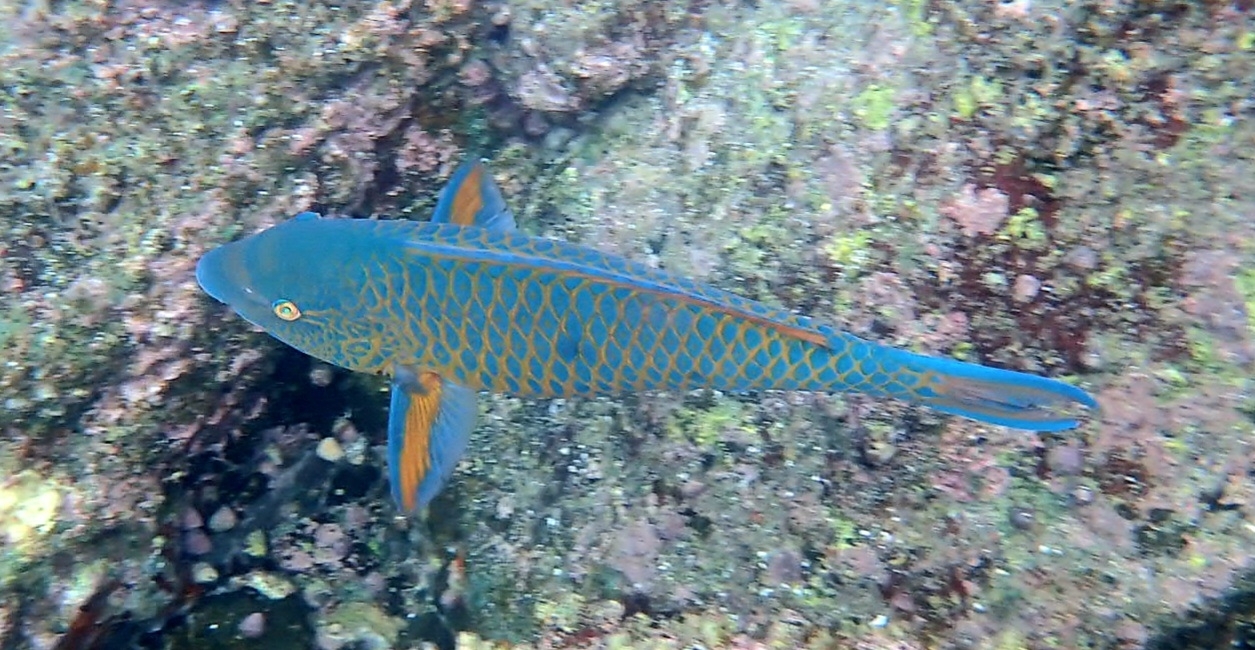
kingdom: Animalia
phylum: Chordata
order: Perciformes
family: Scaridae
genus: Scarus
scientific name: Scarus ghobban
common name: Blue-barred parrotfish
